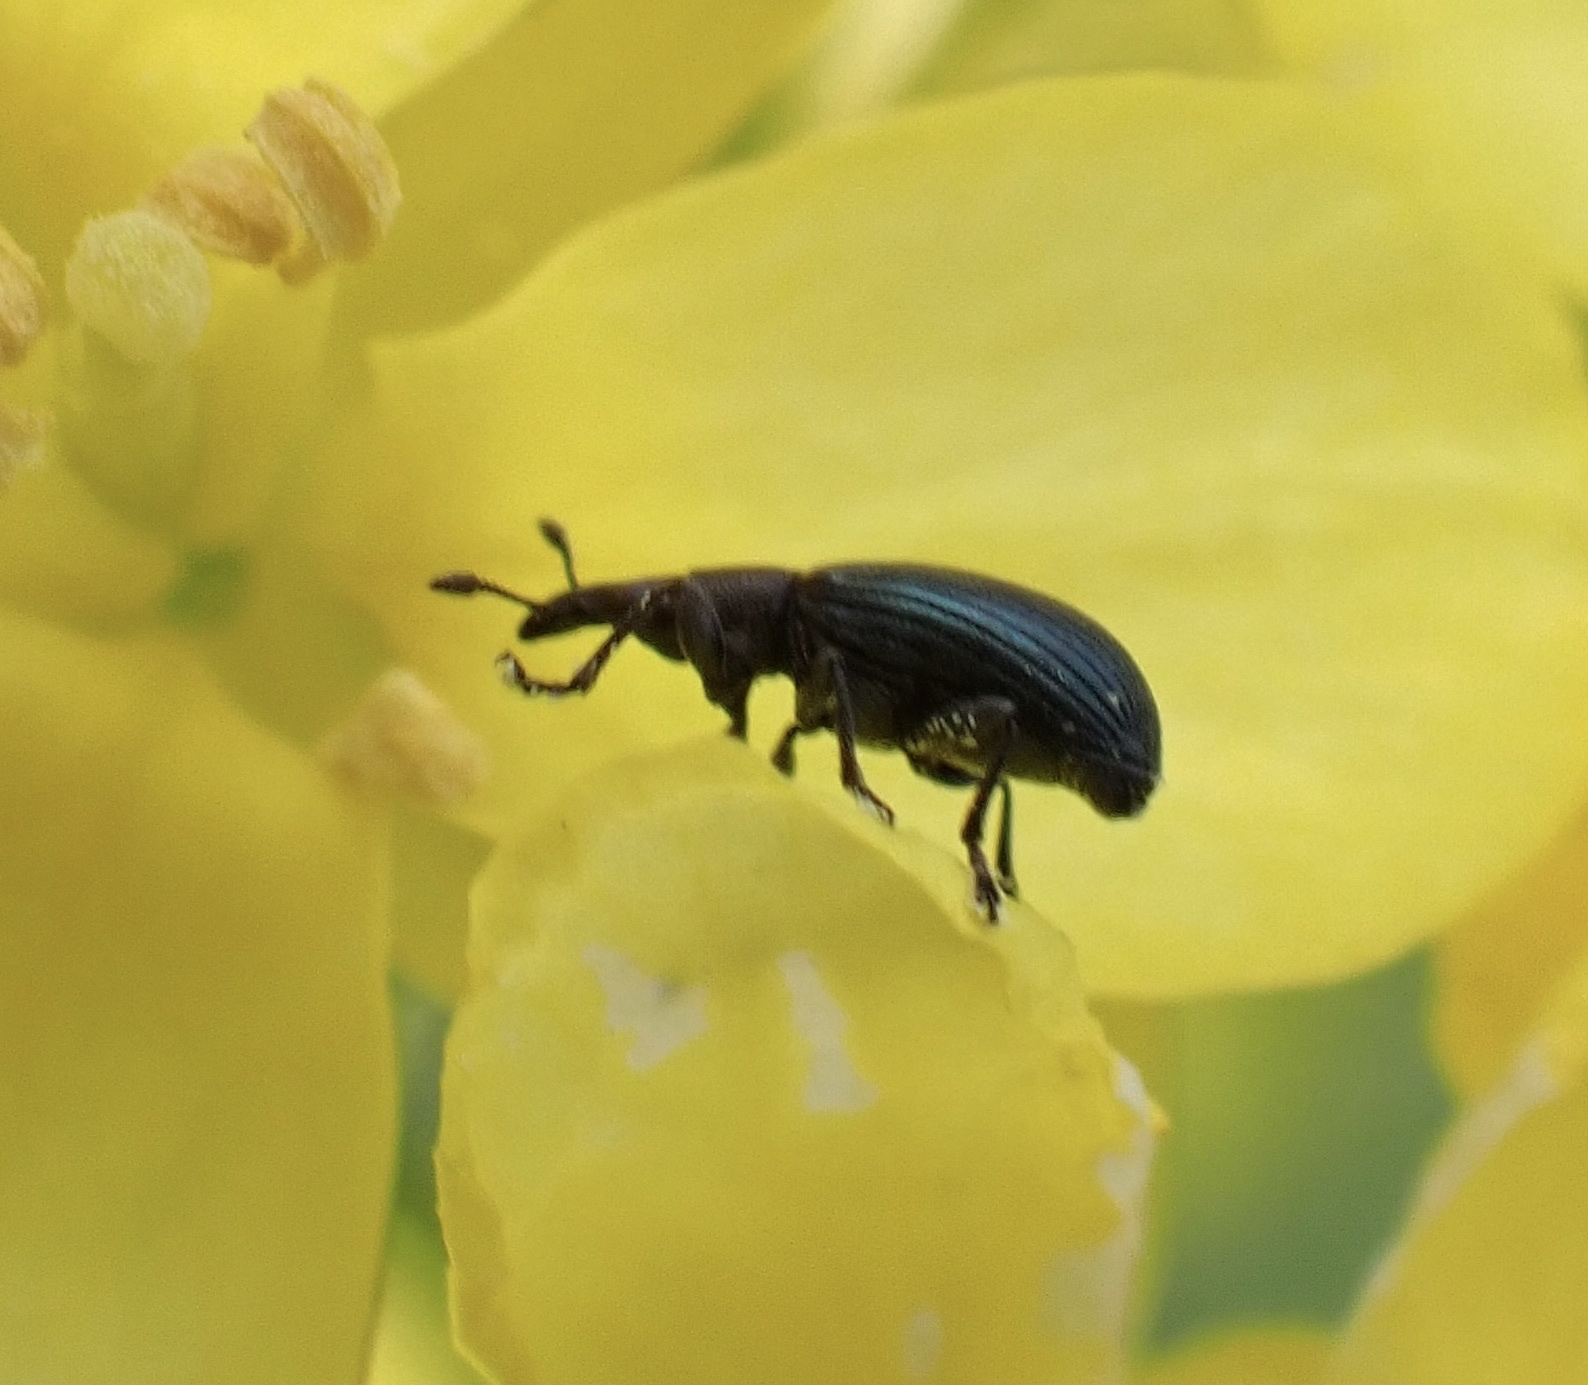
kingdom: Animalia
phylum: Arthropoda
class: Insecta
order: Coleoptera
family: Brentidae
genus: Perapion
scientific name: Perapion violaceum
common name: Beetle
